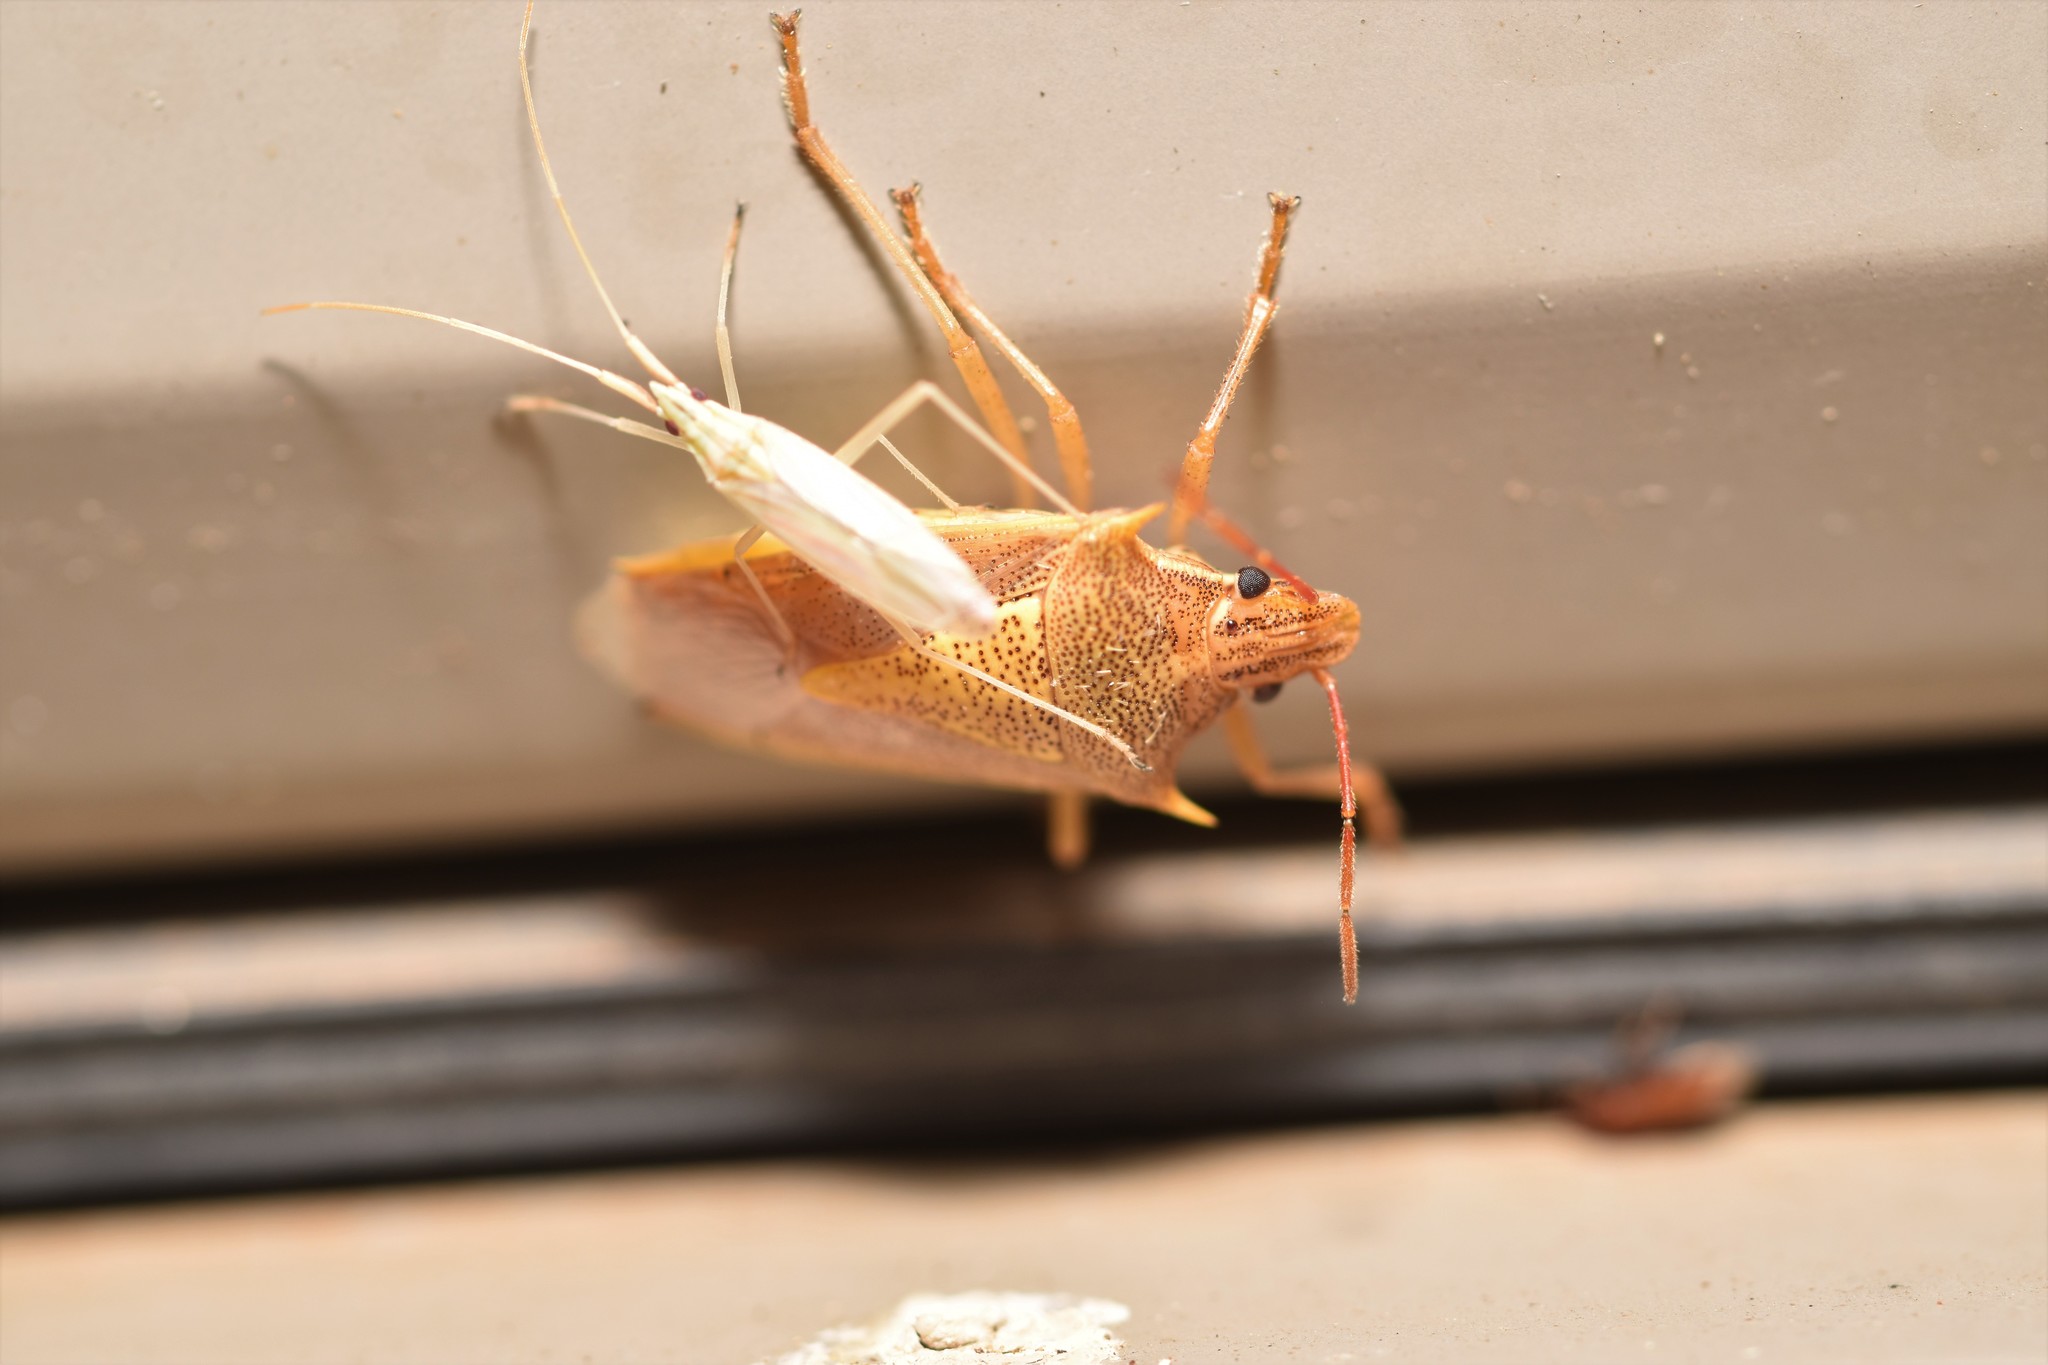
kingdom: Animalia
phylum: Arthropoda
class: Insecta
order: Hemiptera
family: Pentatomidae
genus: Oebalus
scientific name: Oebalus pugnax
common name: Rice stink bug
